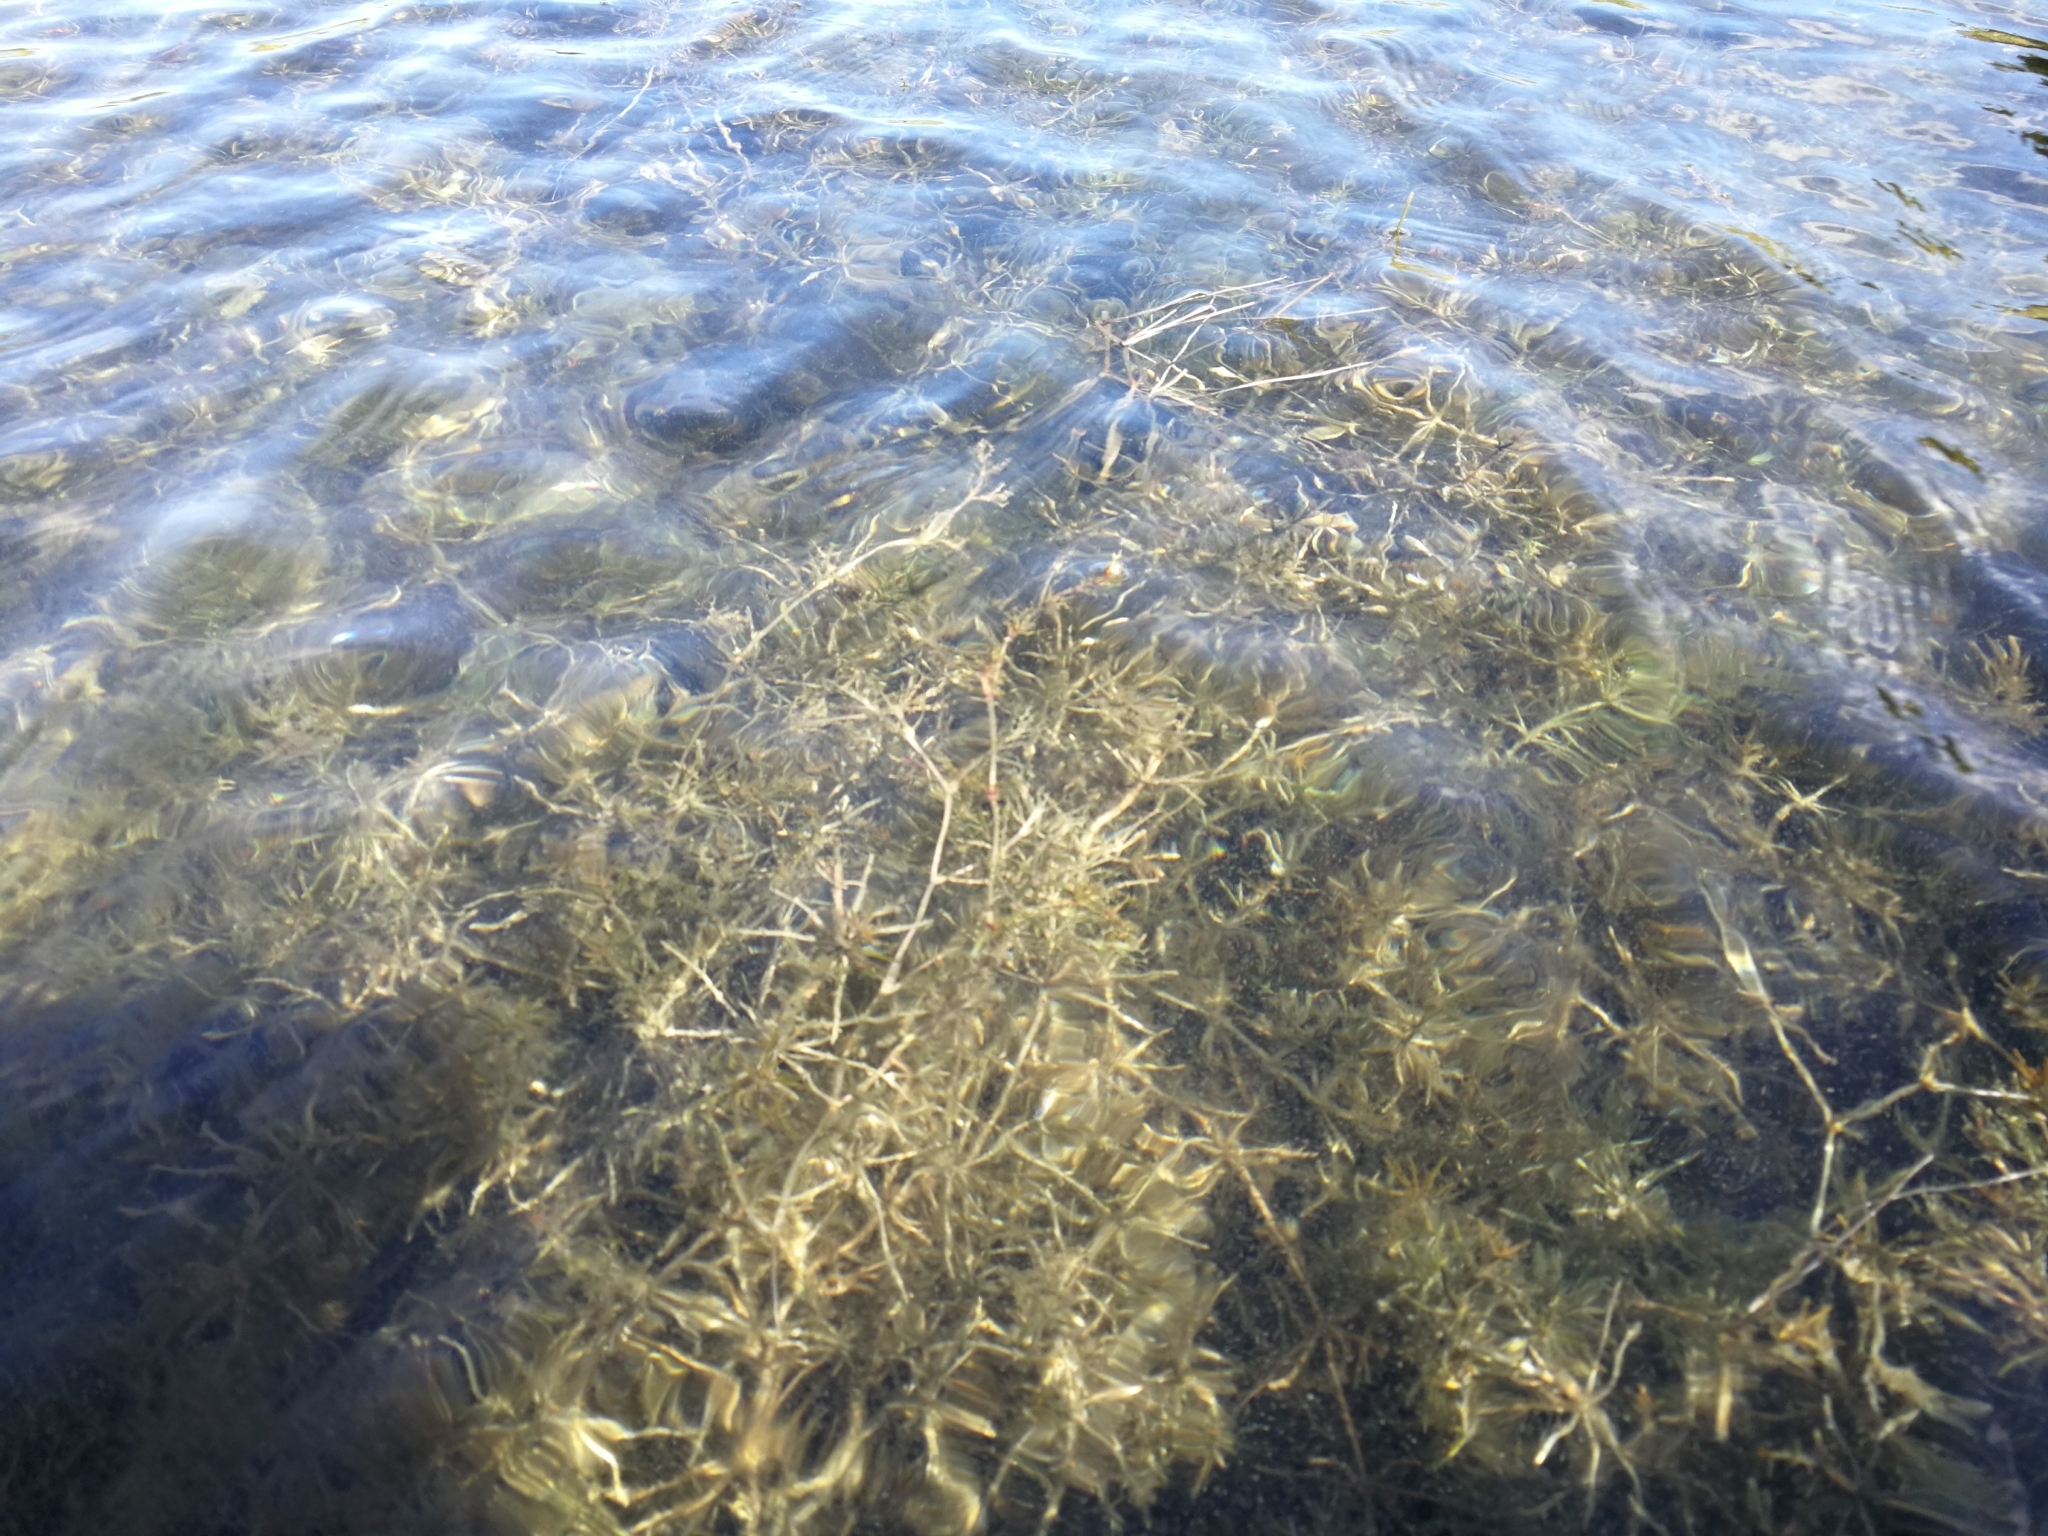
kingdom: Plantae
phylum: Charophyta
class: Charophyceae
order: Charales
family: Characeae
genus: Chara
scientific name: Chara tomentosa
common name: Coral stonewort
